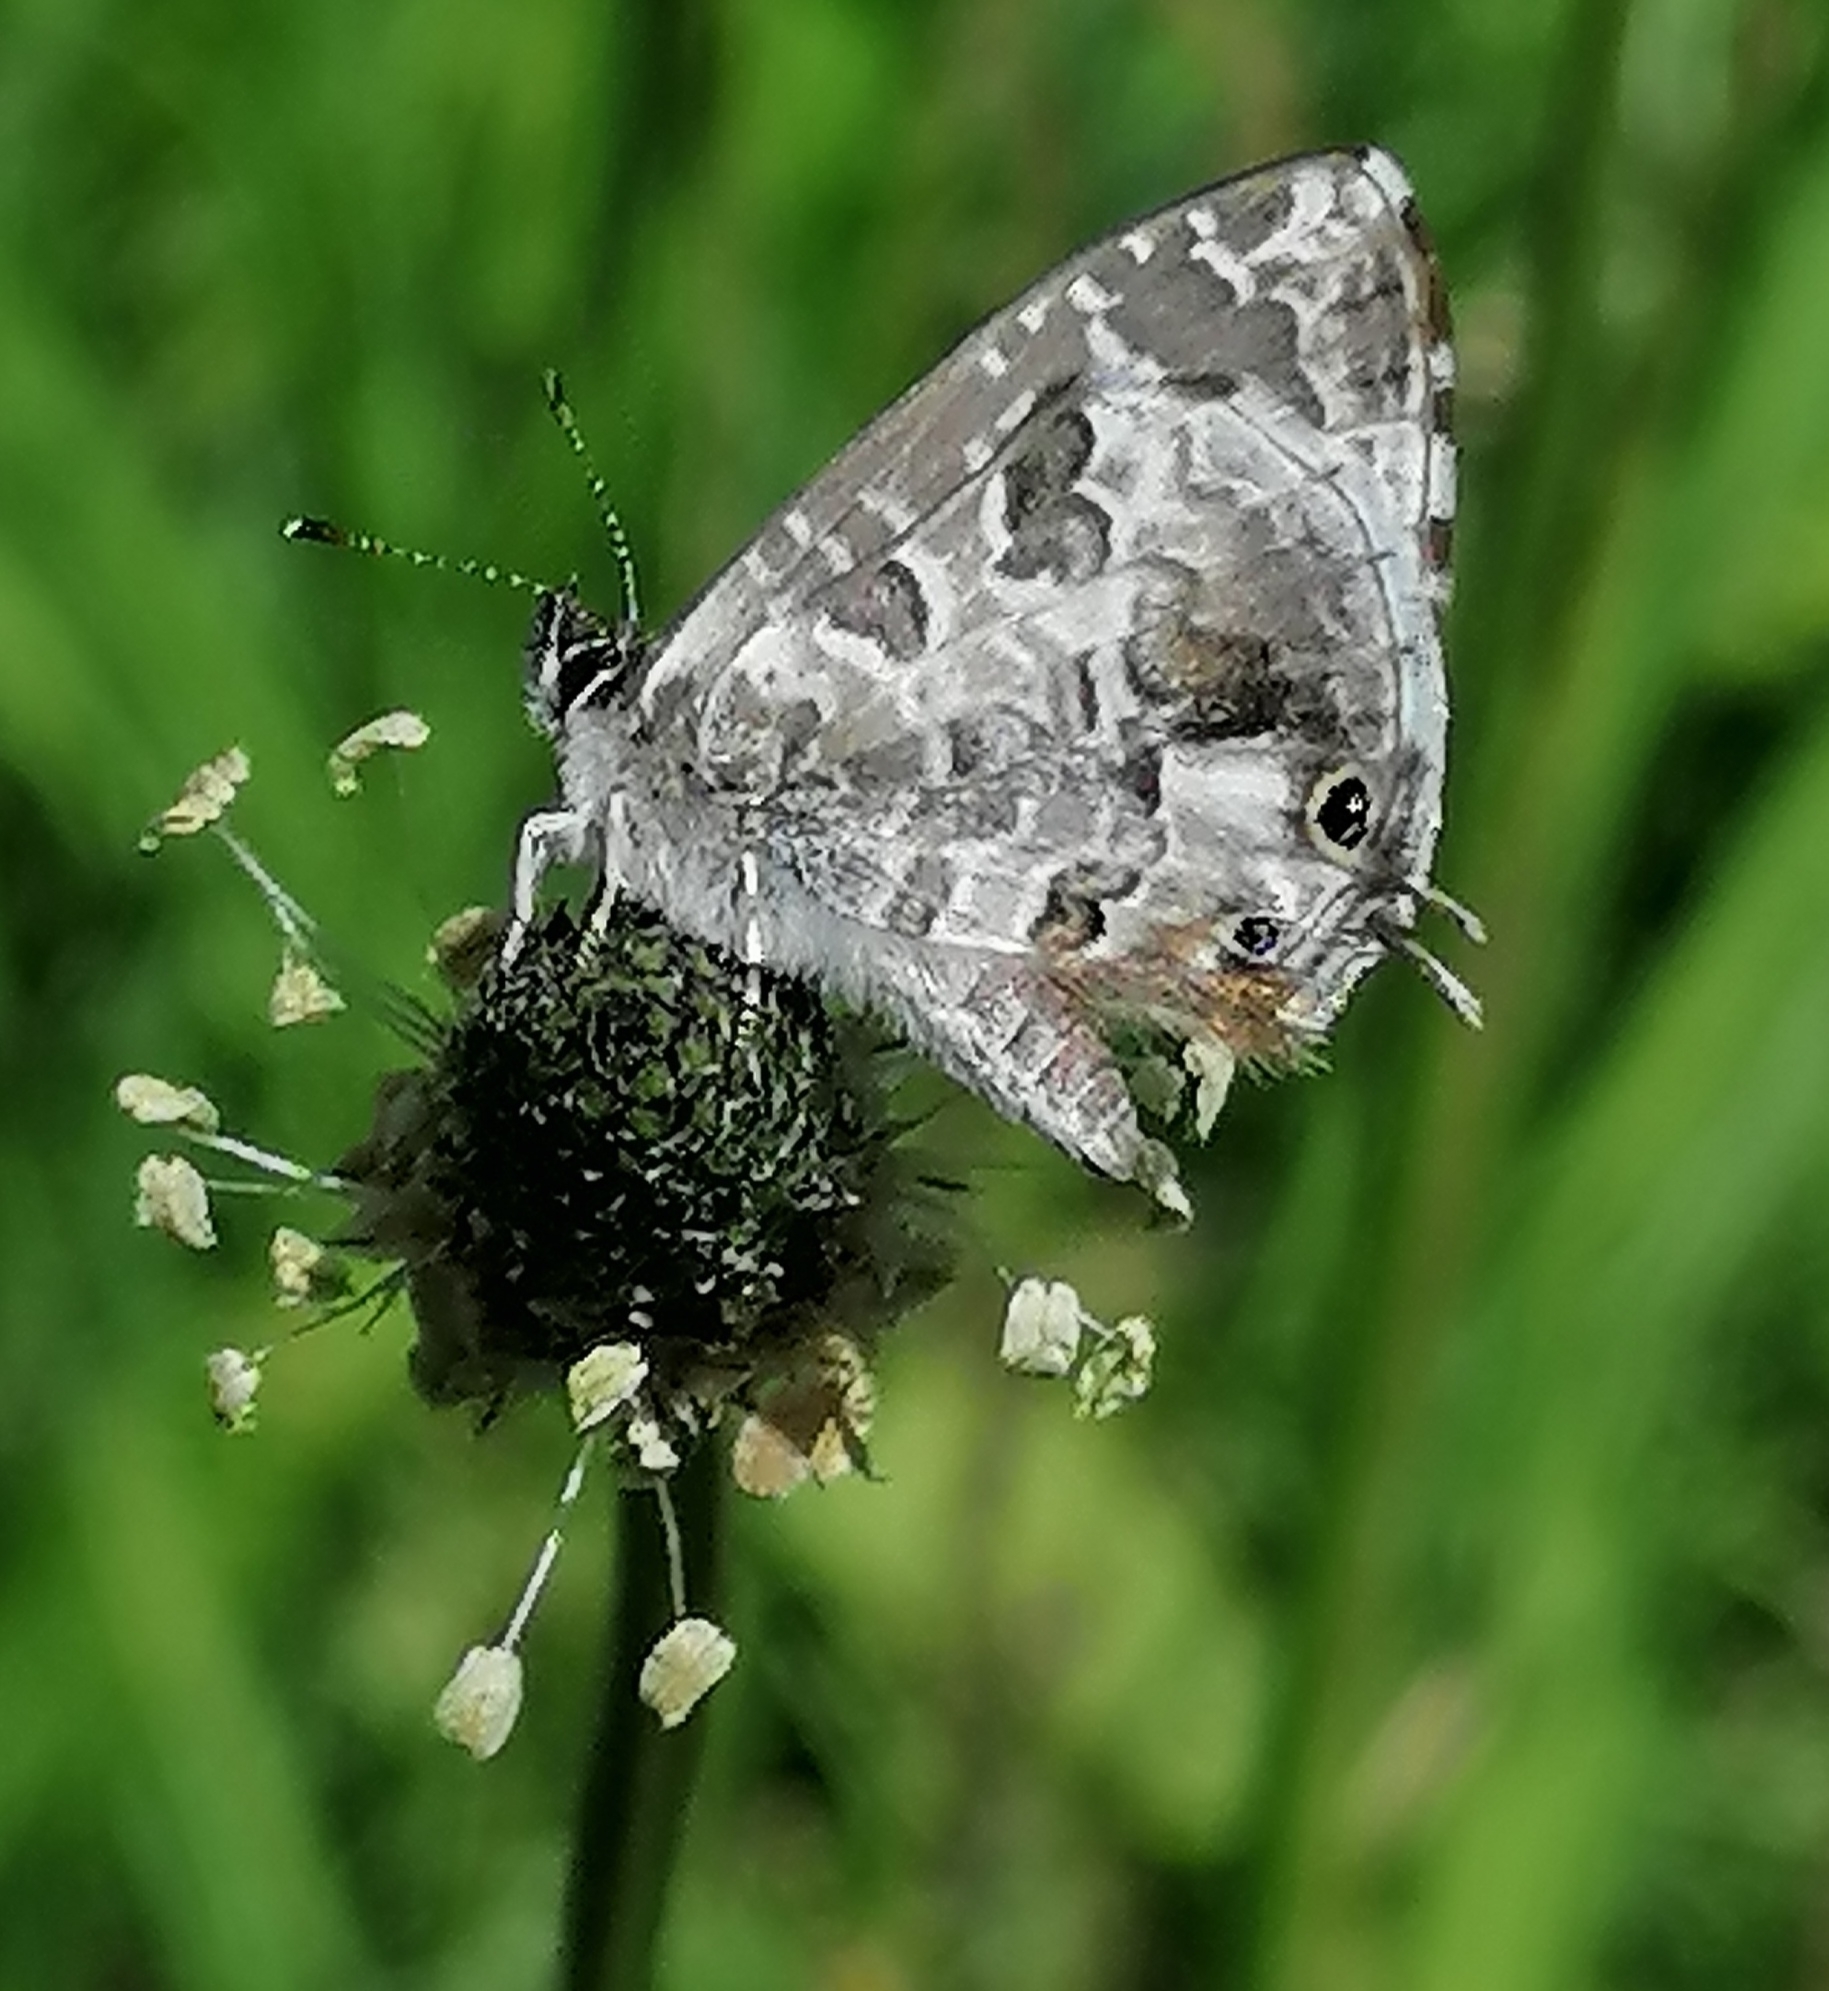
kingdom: Animalia
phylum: Arthropoda
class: Insecta
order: Lepidoptera
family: Lycaenidae
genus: Cacyreus
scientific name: Cacyreus lingeus
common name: Bush bronze
